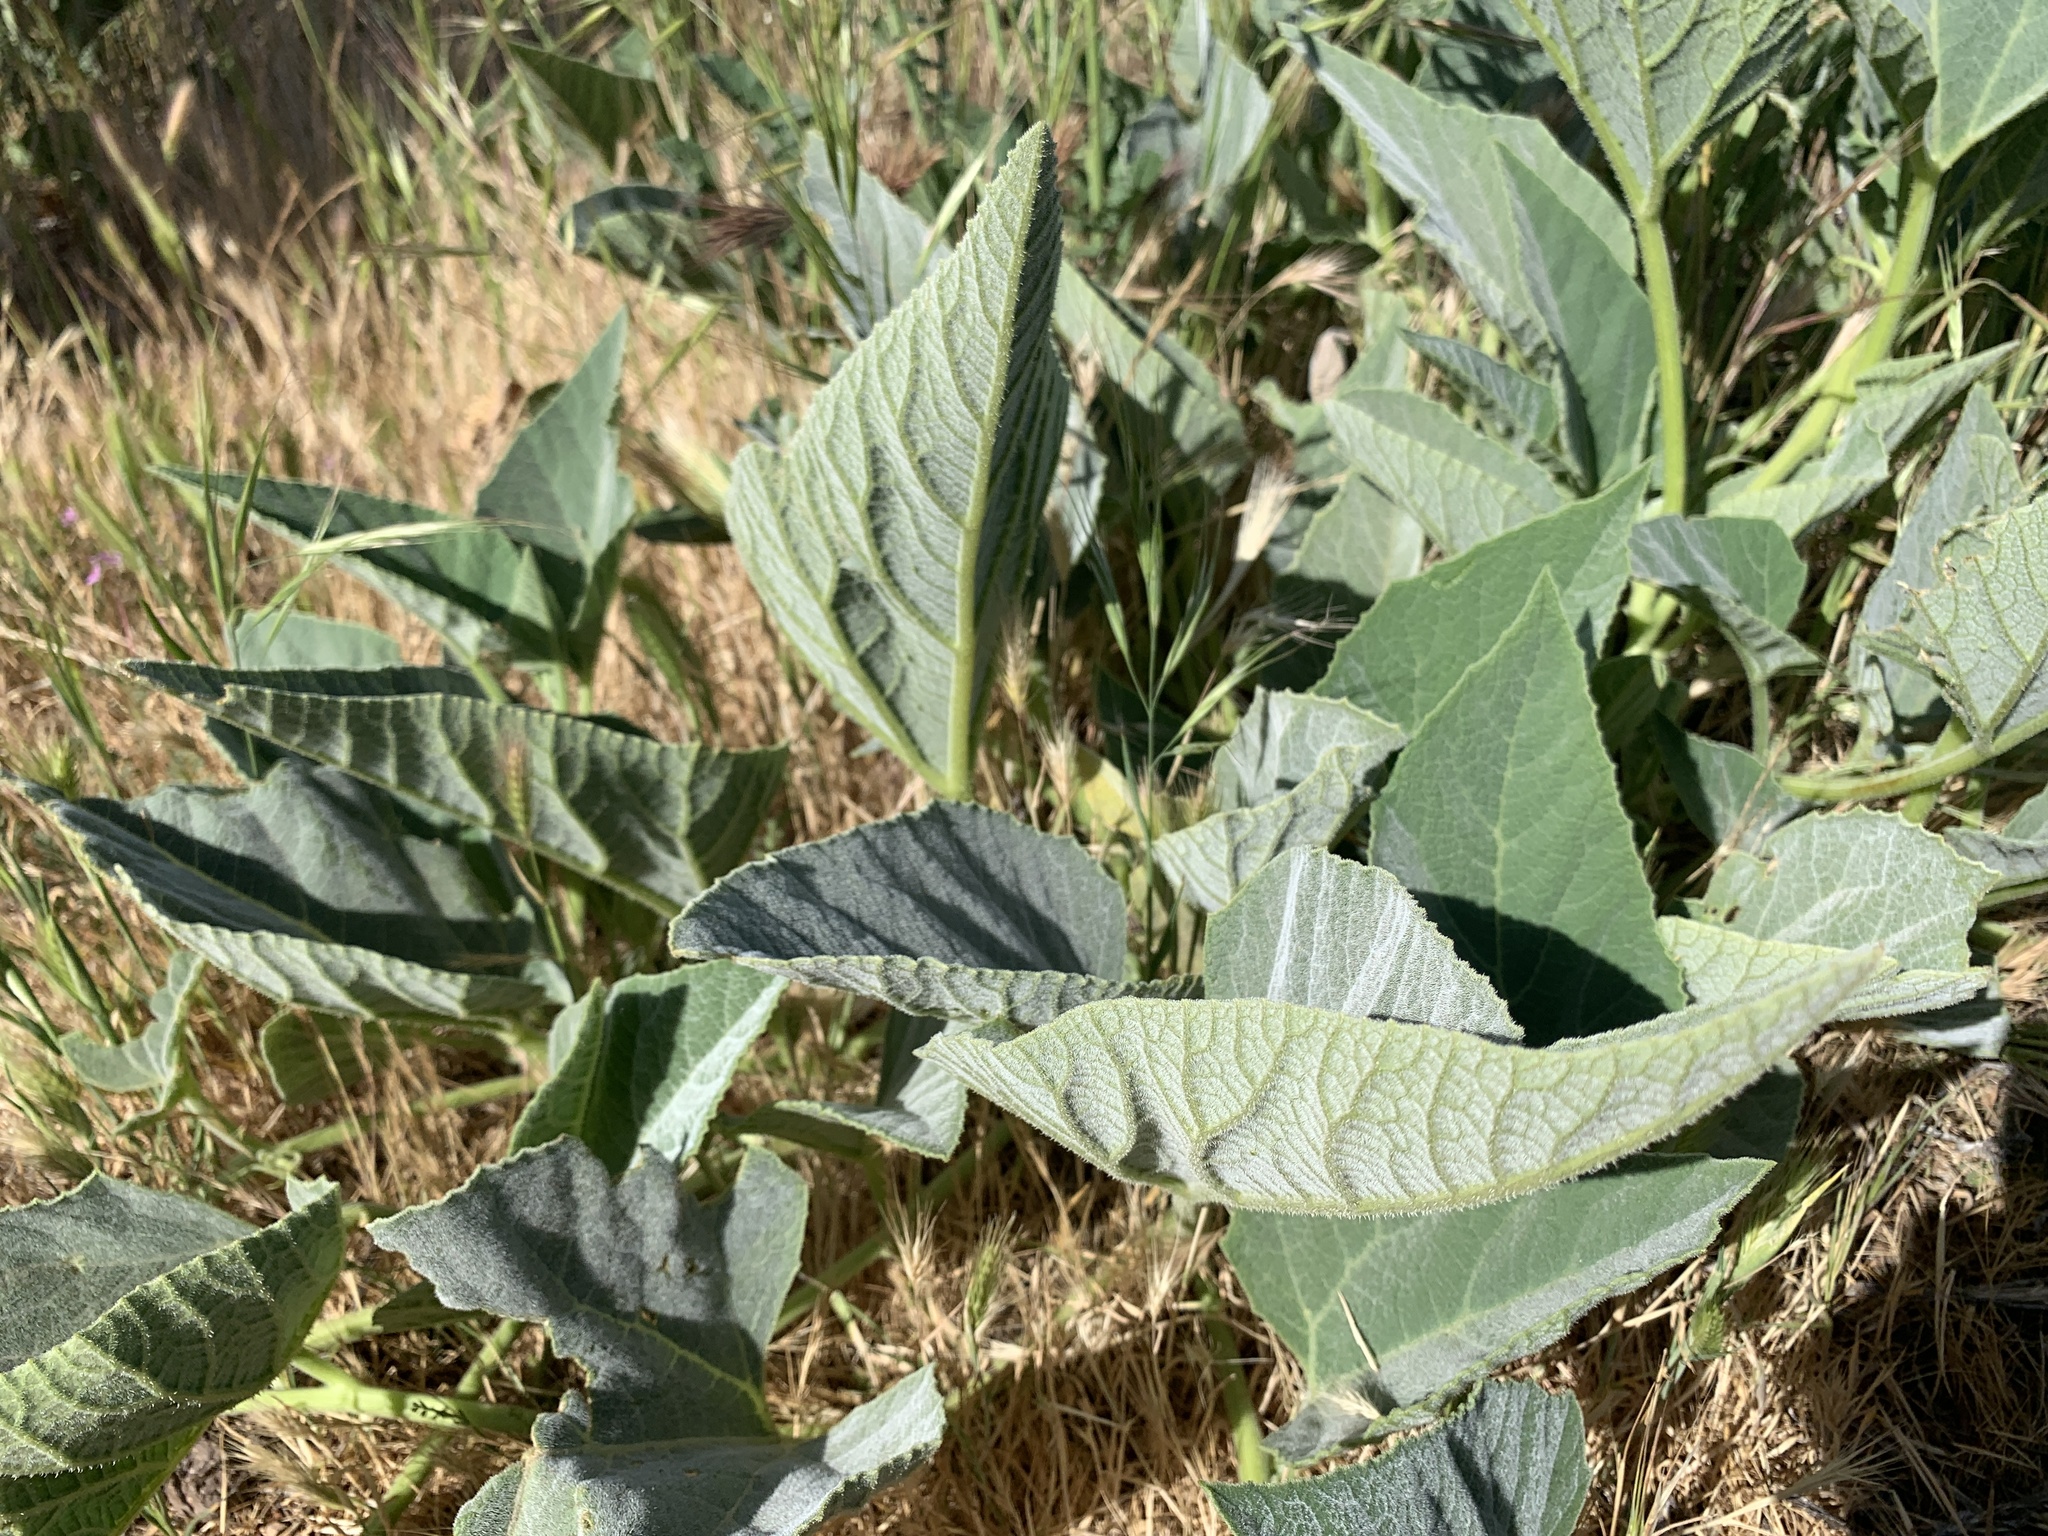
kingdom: Plantae
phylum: Tracheophyta
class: Magnoliopsida
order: Cucurbitales
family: Cucurbitaceae
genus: Cucurbita
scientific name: Cucurbita foetidissima
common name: Buffalo gourd
